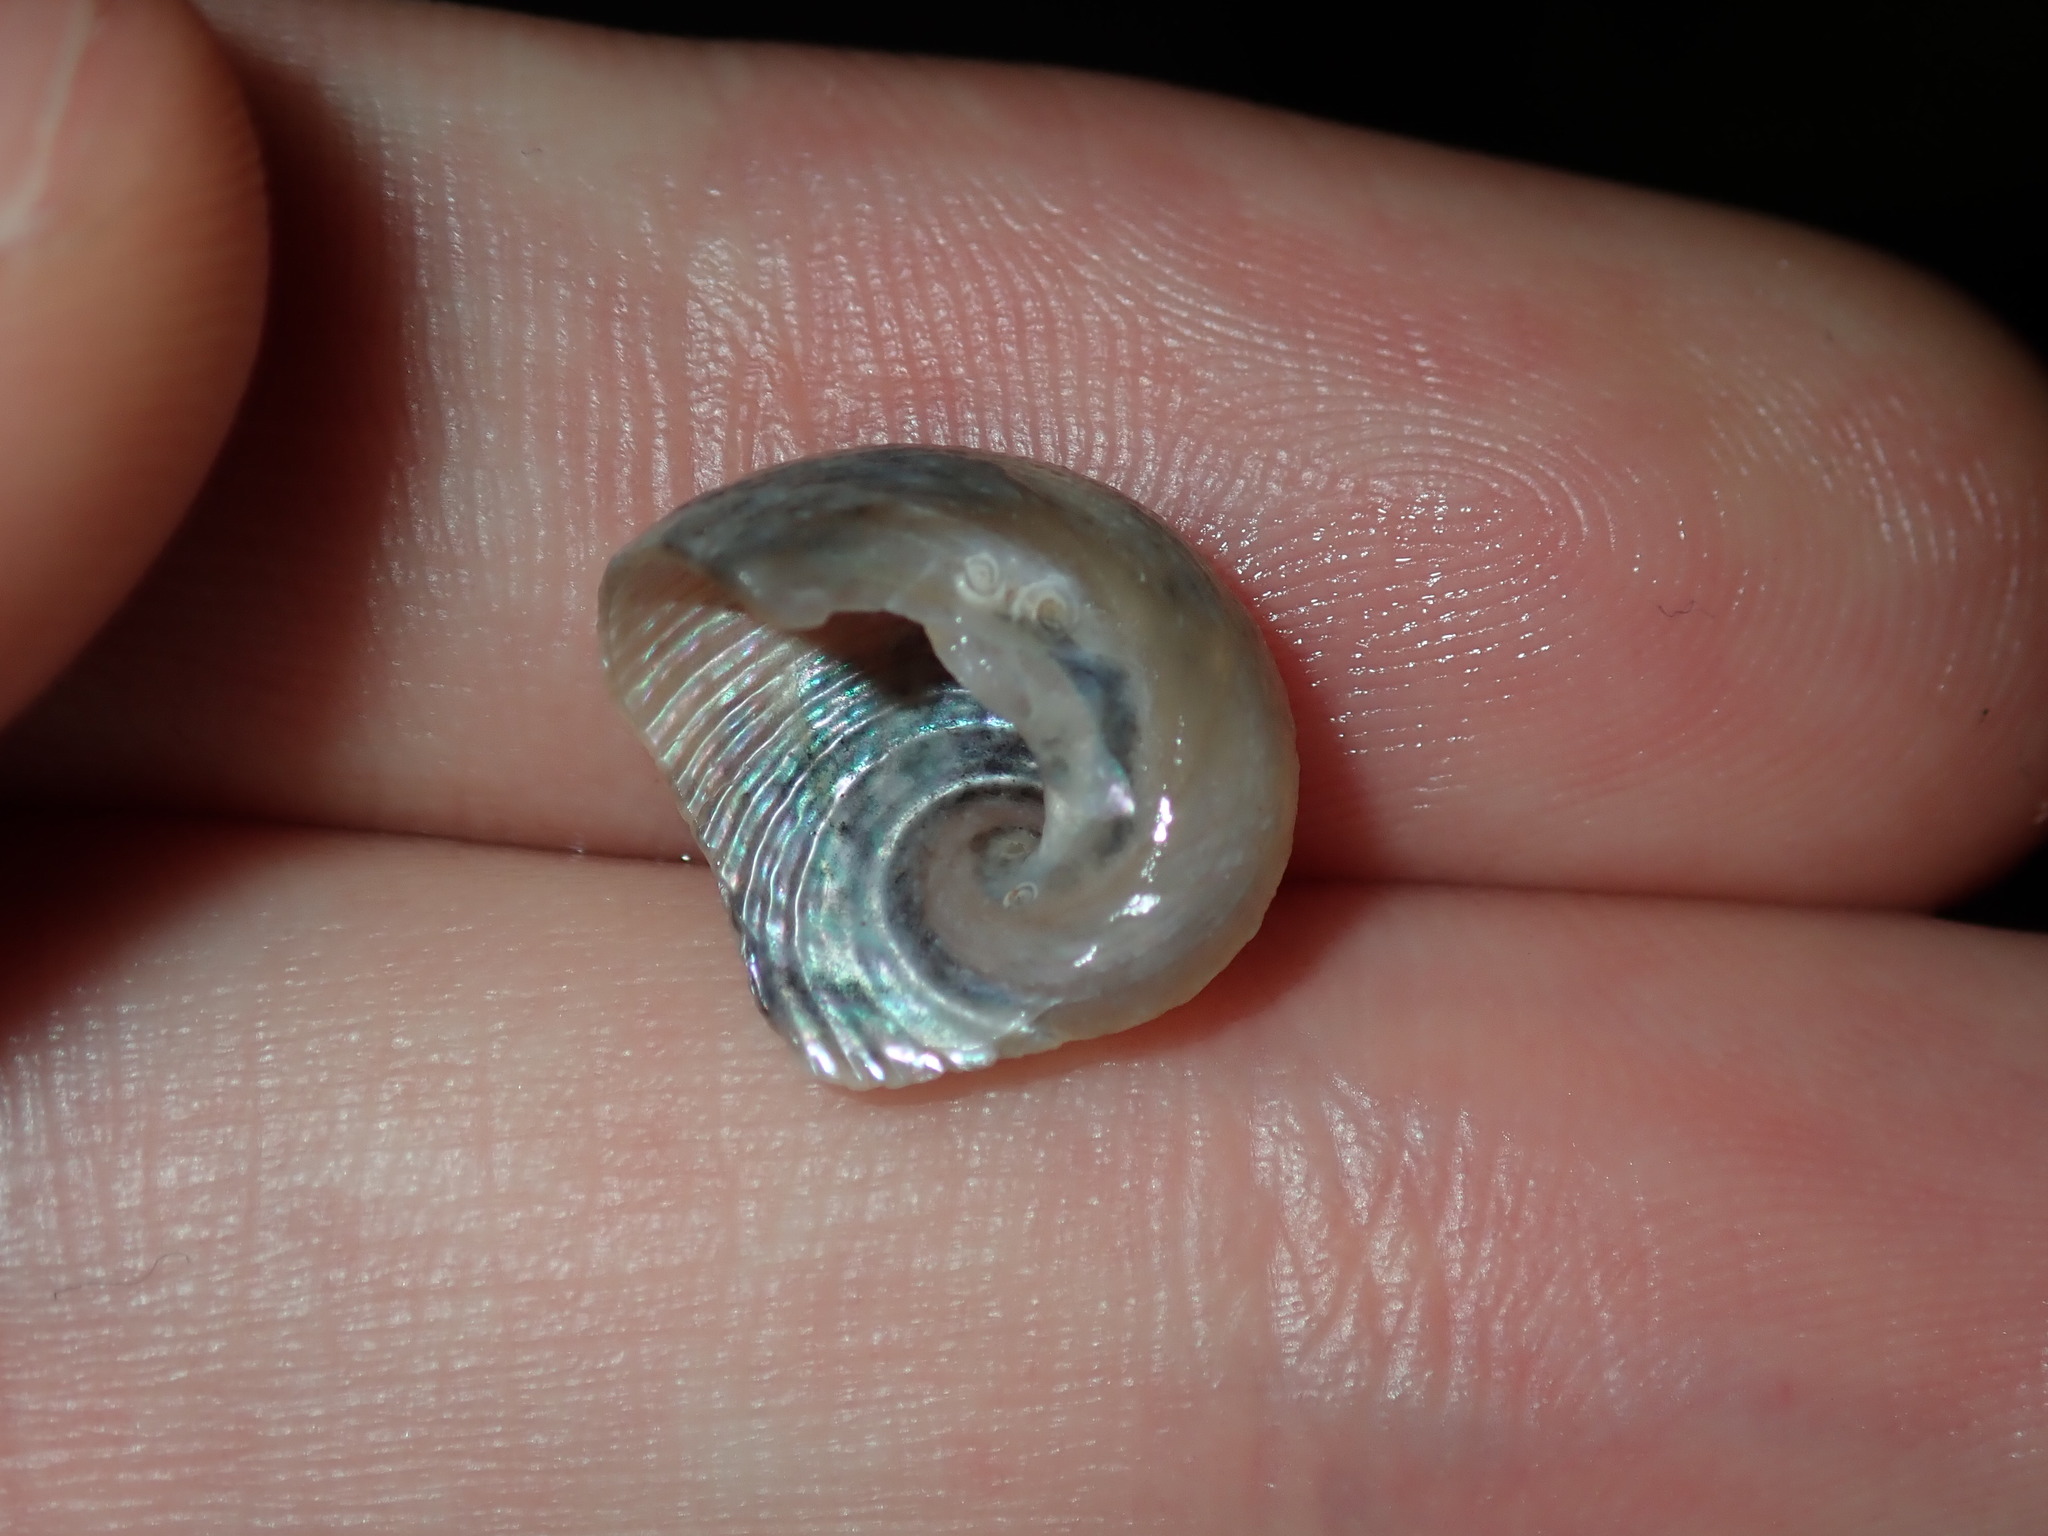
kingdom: Animalia
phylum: Mollusca
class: Gastropoda
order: Seguenziida
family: Chilodontaidae
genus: Granata
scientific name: Granata imbricata
